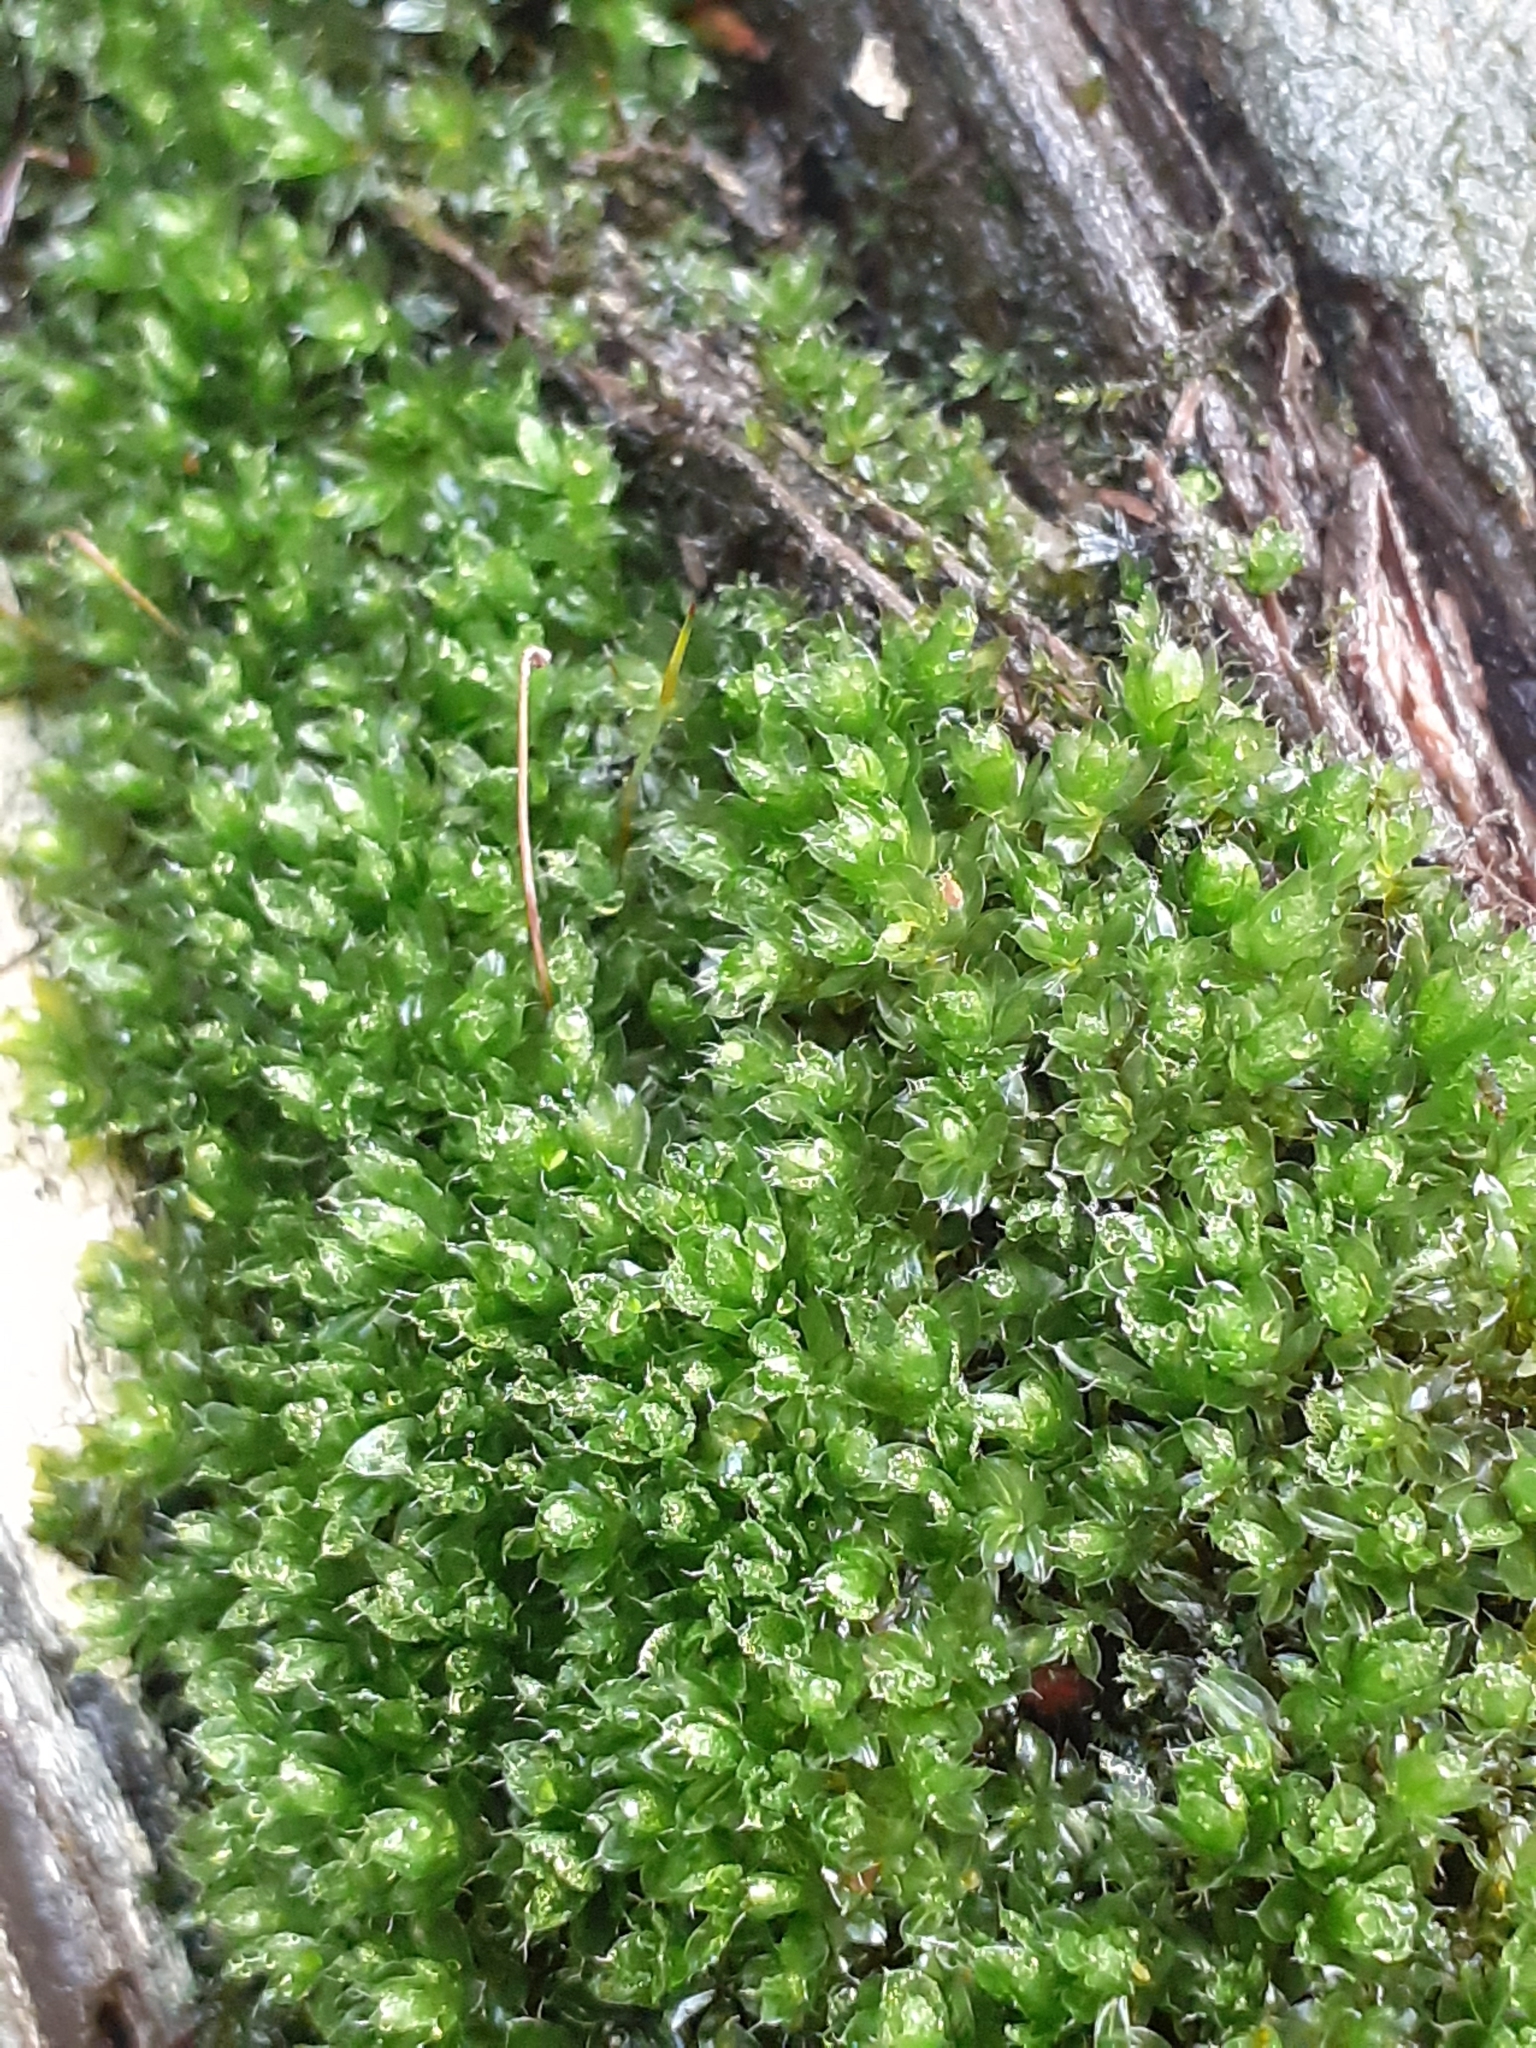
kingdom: Plantae
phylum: Bryophyta
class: Bryopsida
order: Bryales
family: Bryaceae
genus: Rosulabryum
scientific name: Rosulabryum capillare
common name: Capillary thread-moss
